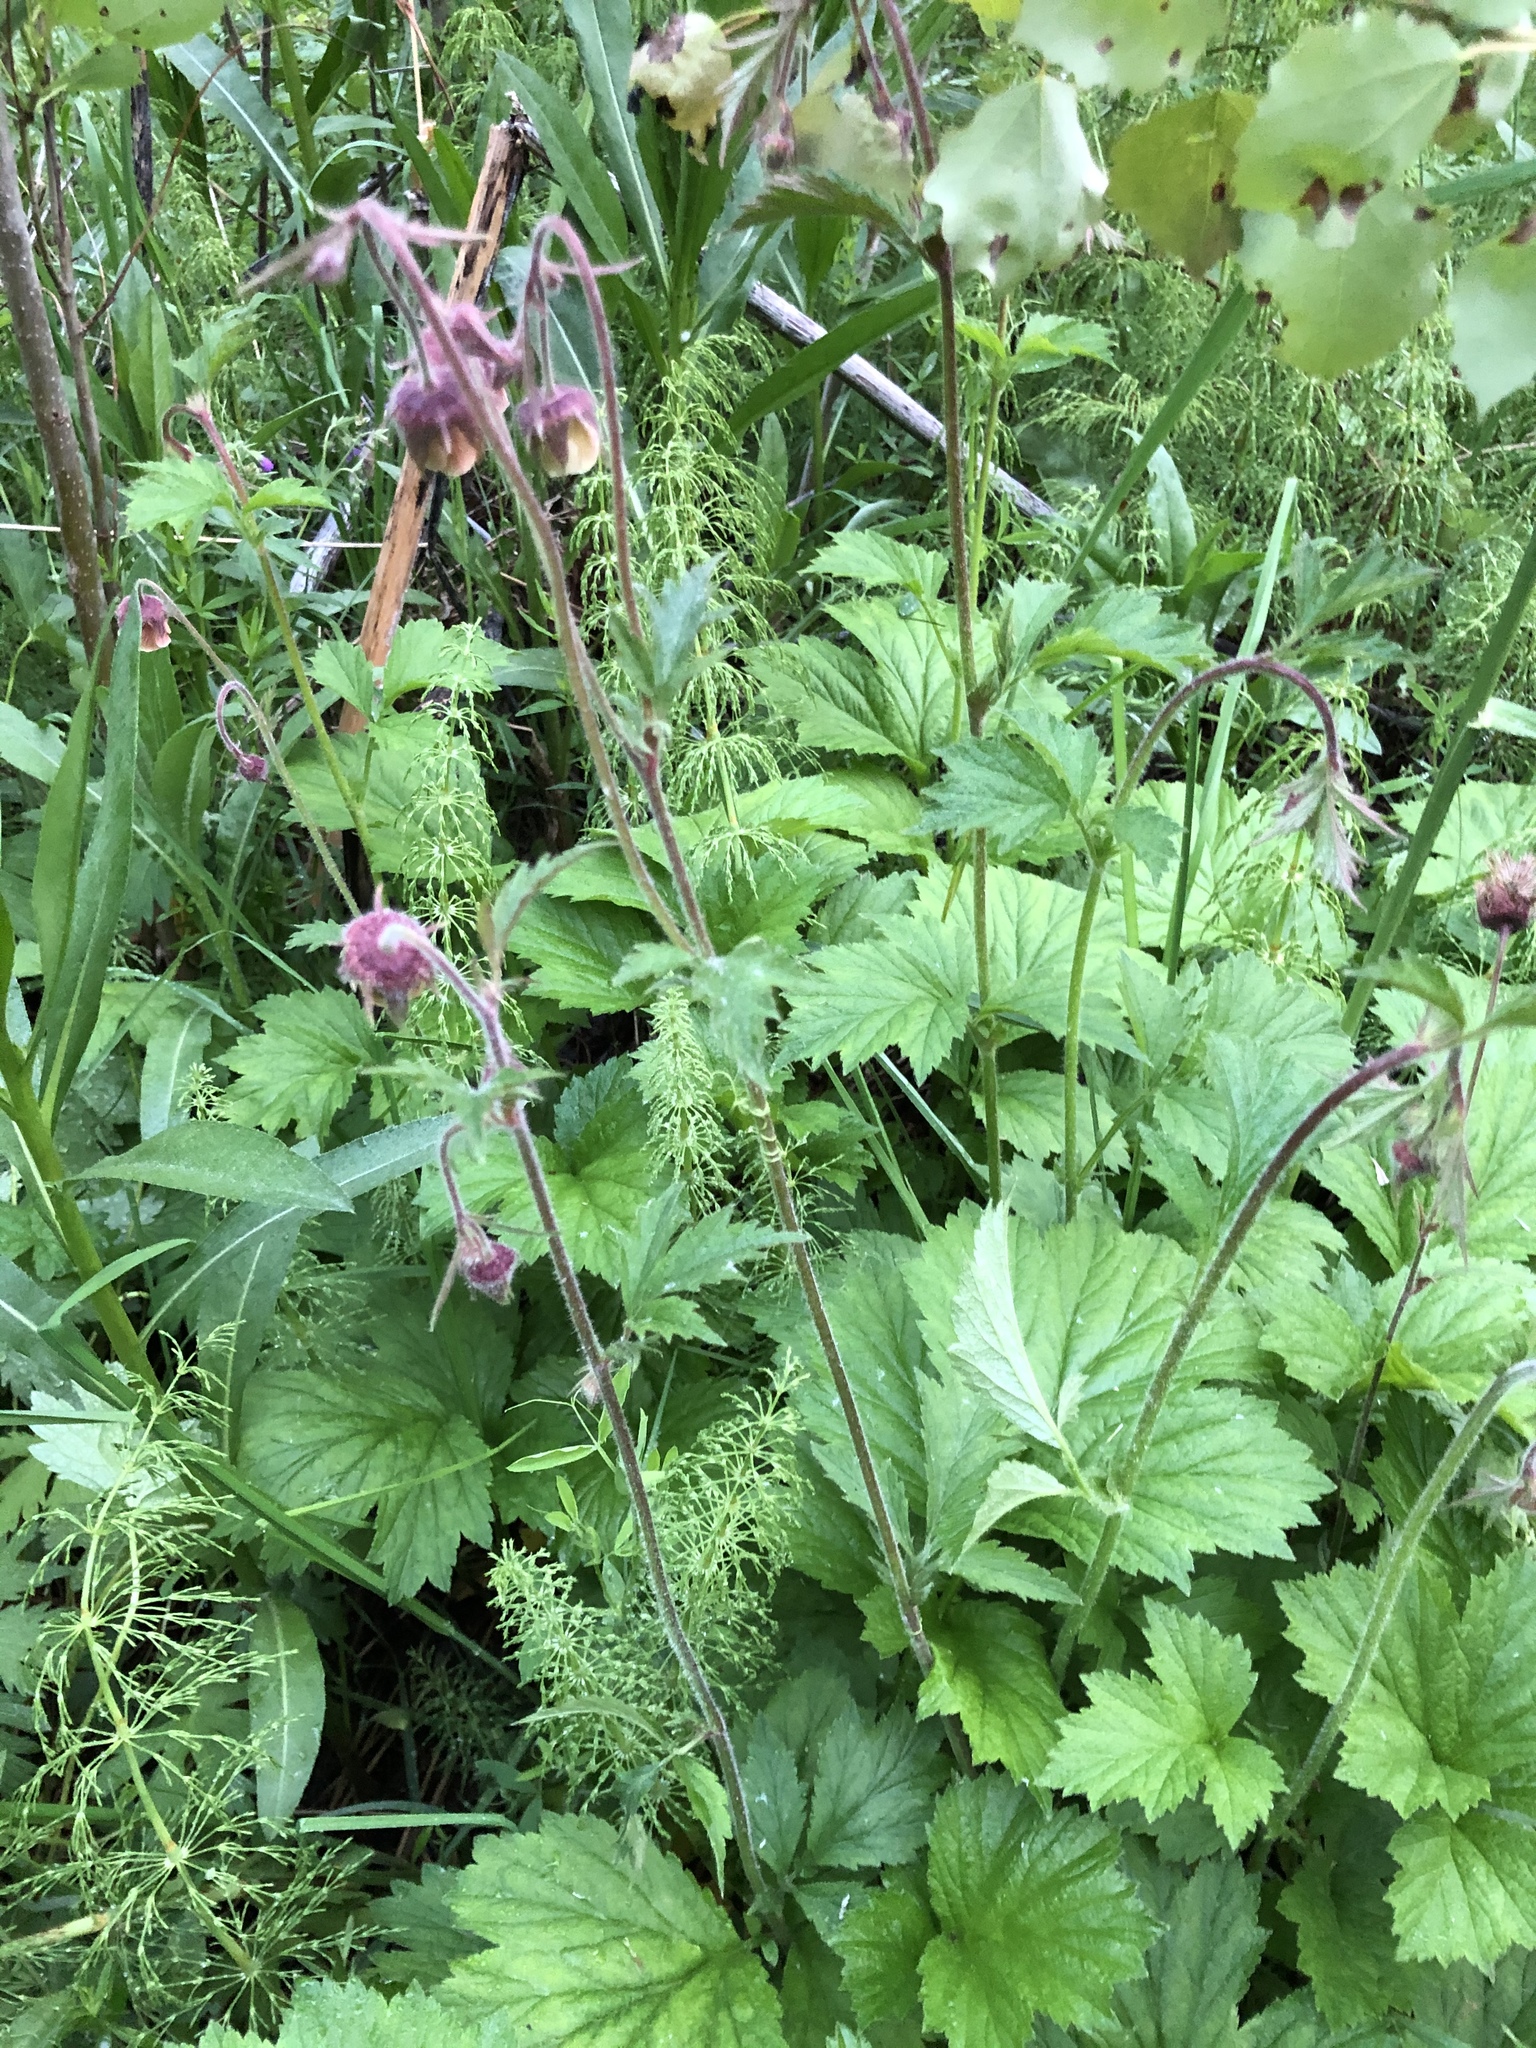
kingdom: Plantae
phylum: Tracheophyta
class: Magnoliopsida
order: Rosales
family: Rosaceae
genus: Geum
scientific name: Geum rivale
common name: Water avens
